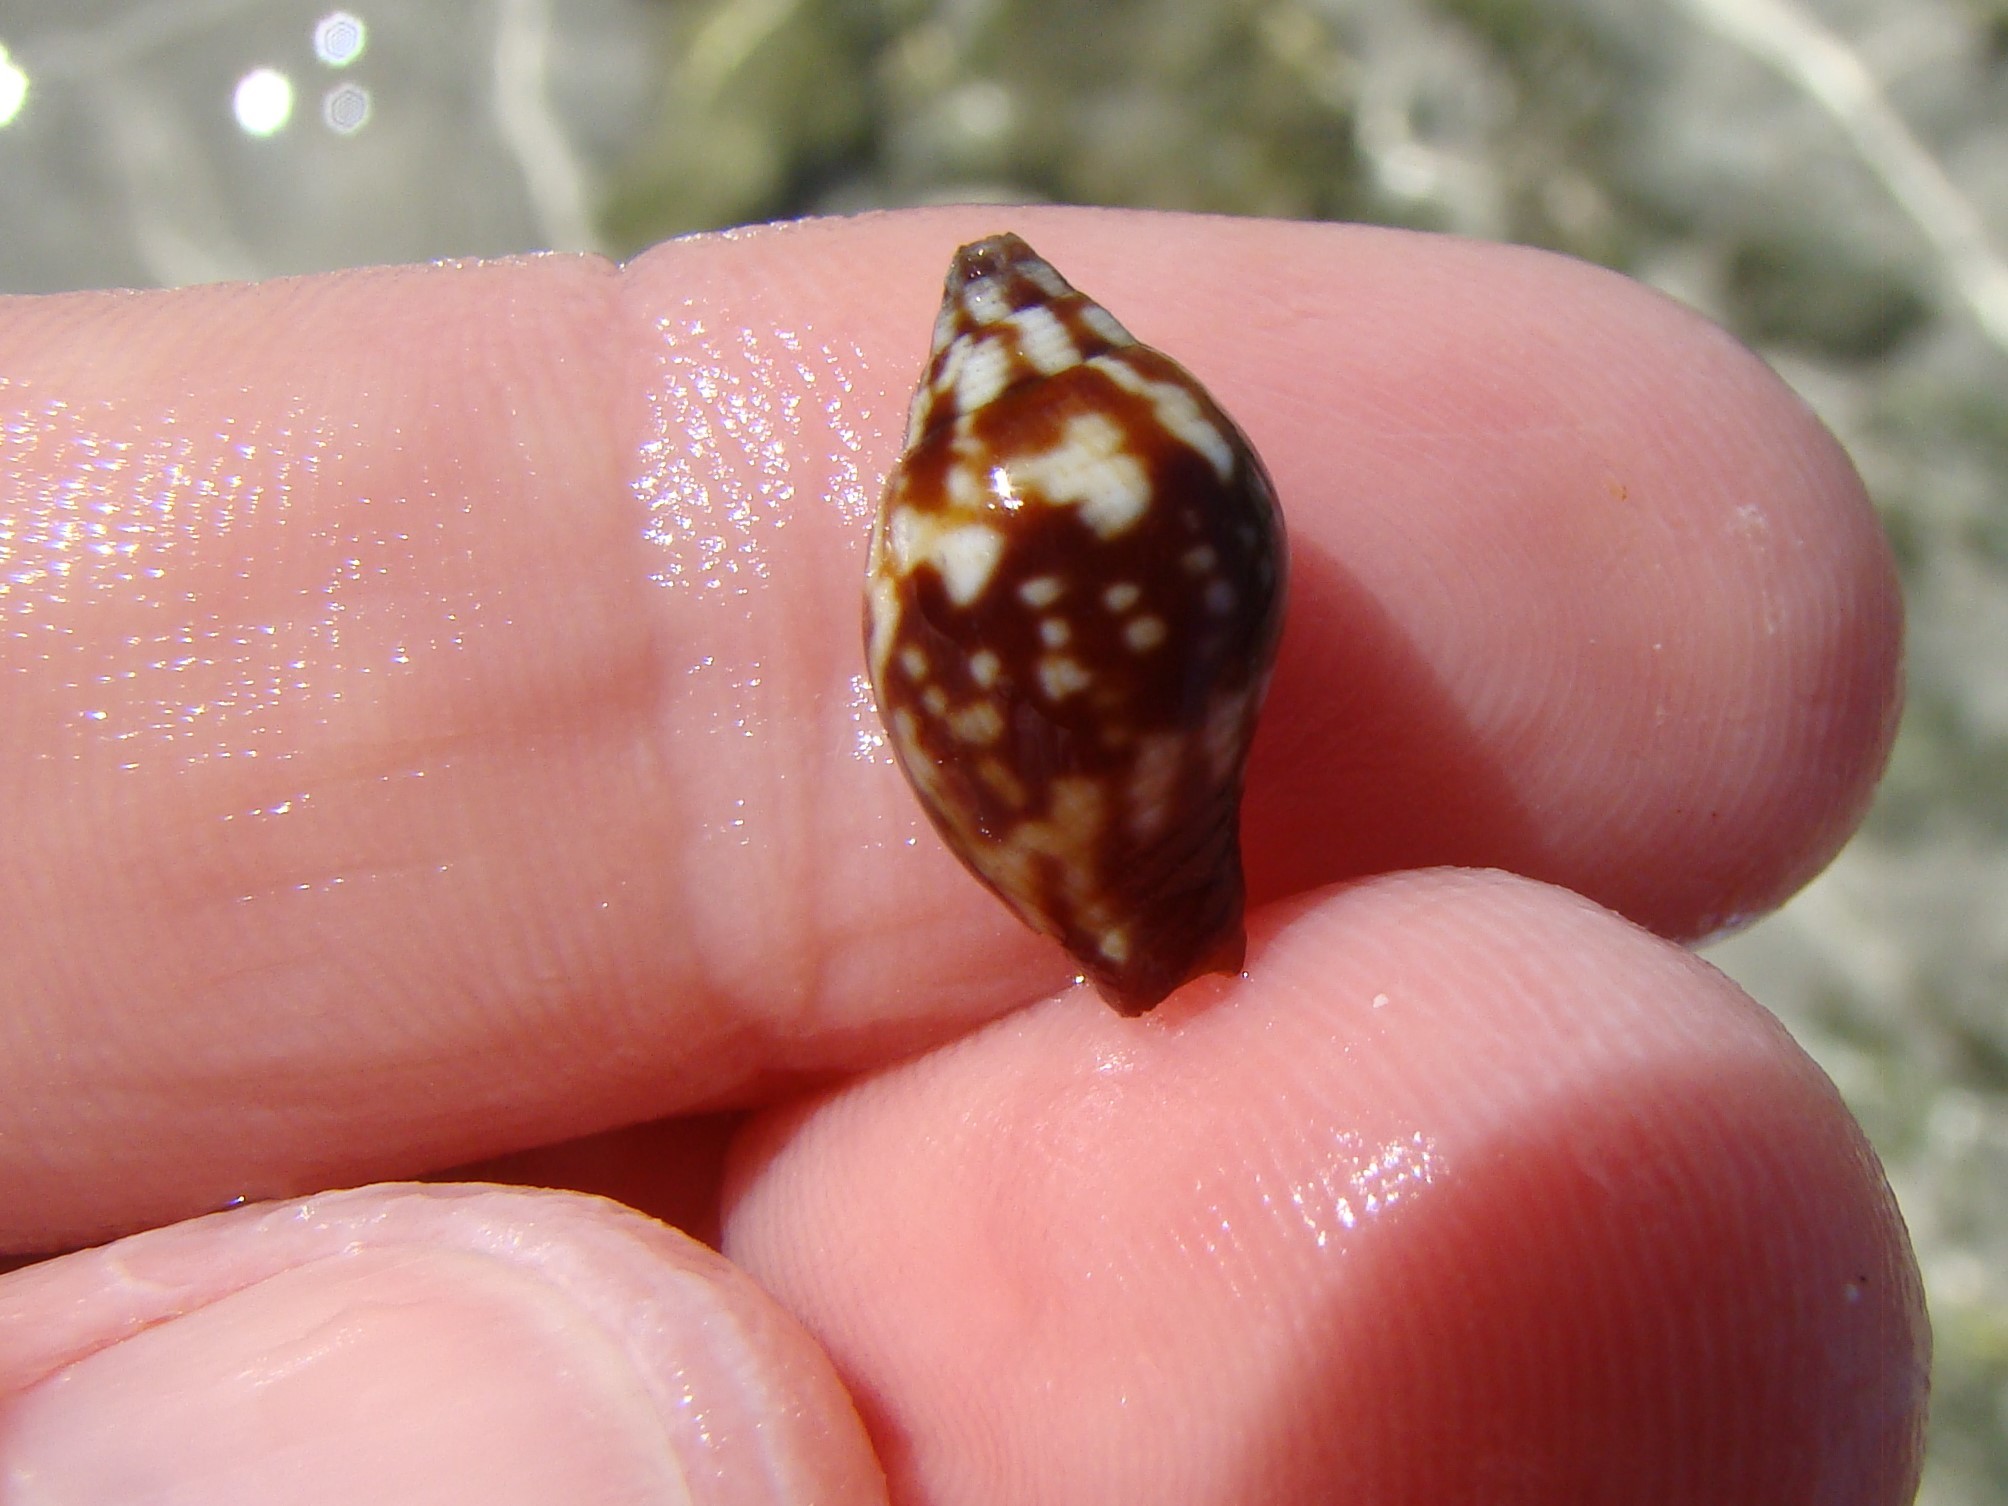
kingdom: Animalia
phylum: Mollusca
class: Gastropoda
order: Neogastropoda
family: Mitridae
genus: Strigatella
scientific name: Strigatella litterata
